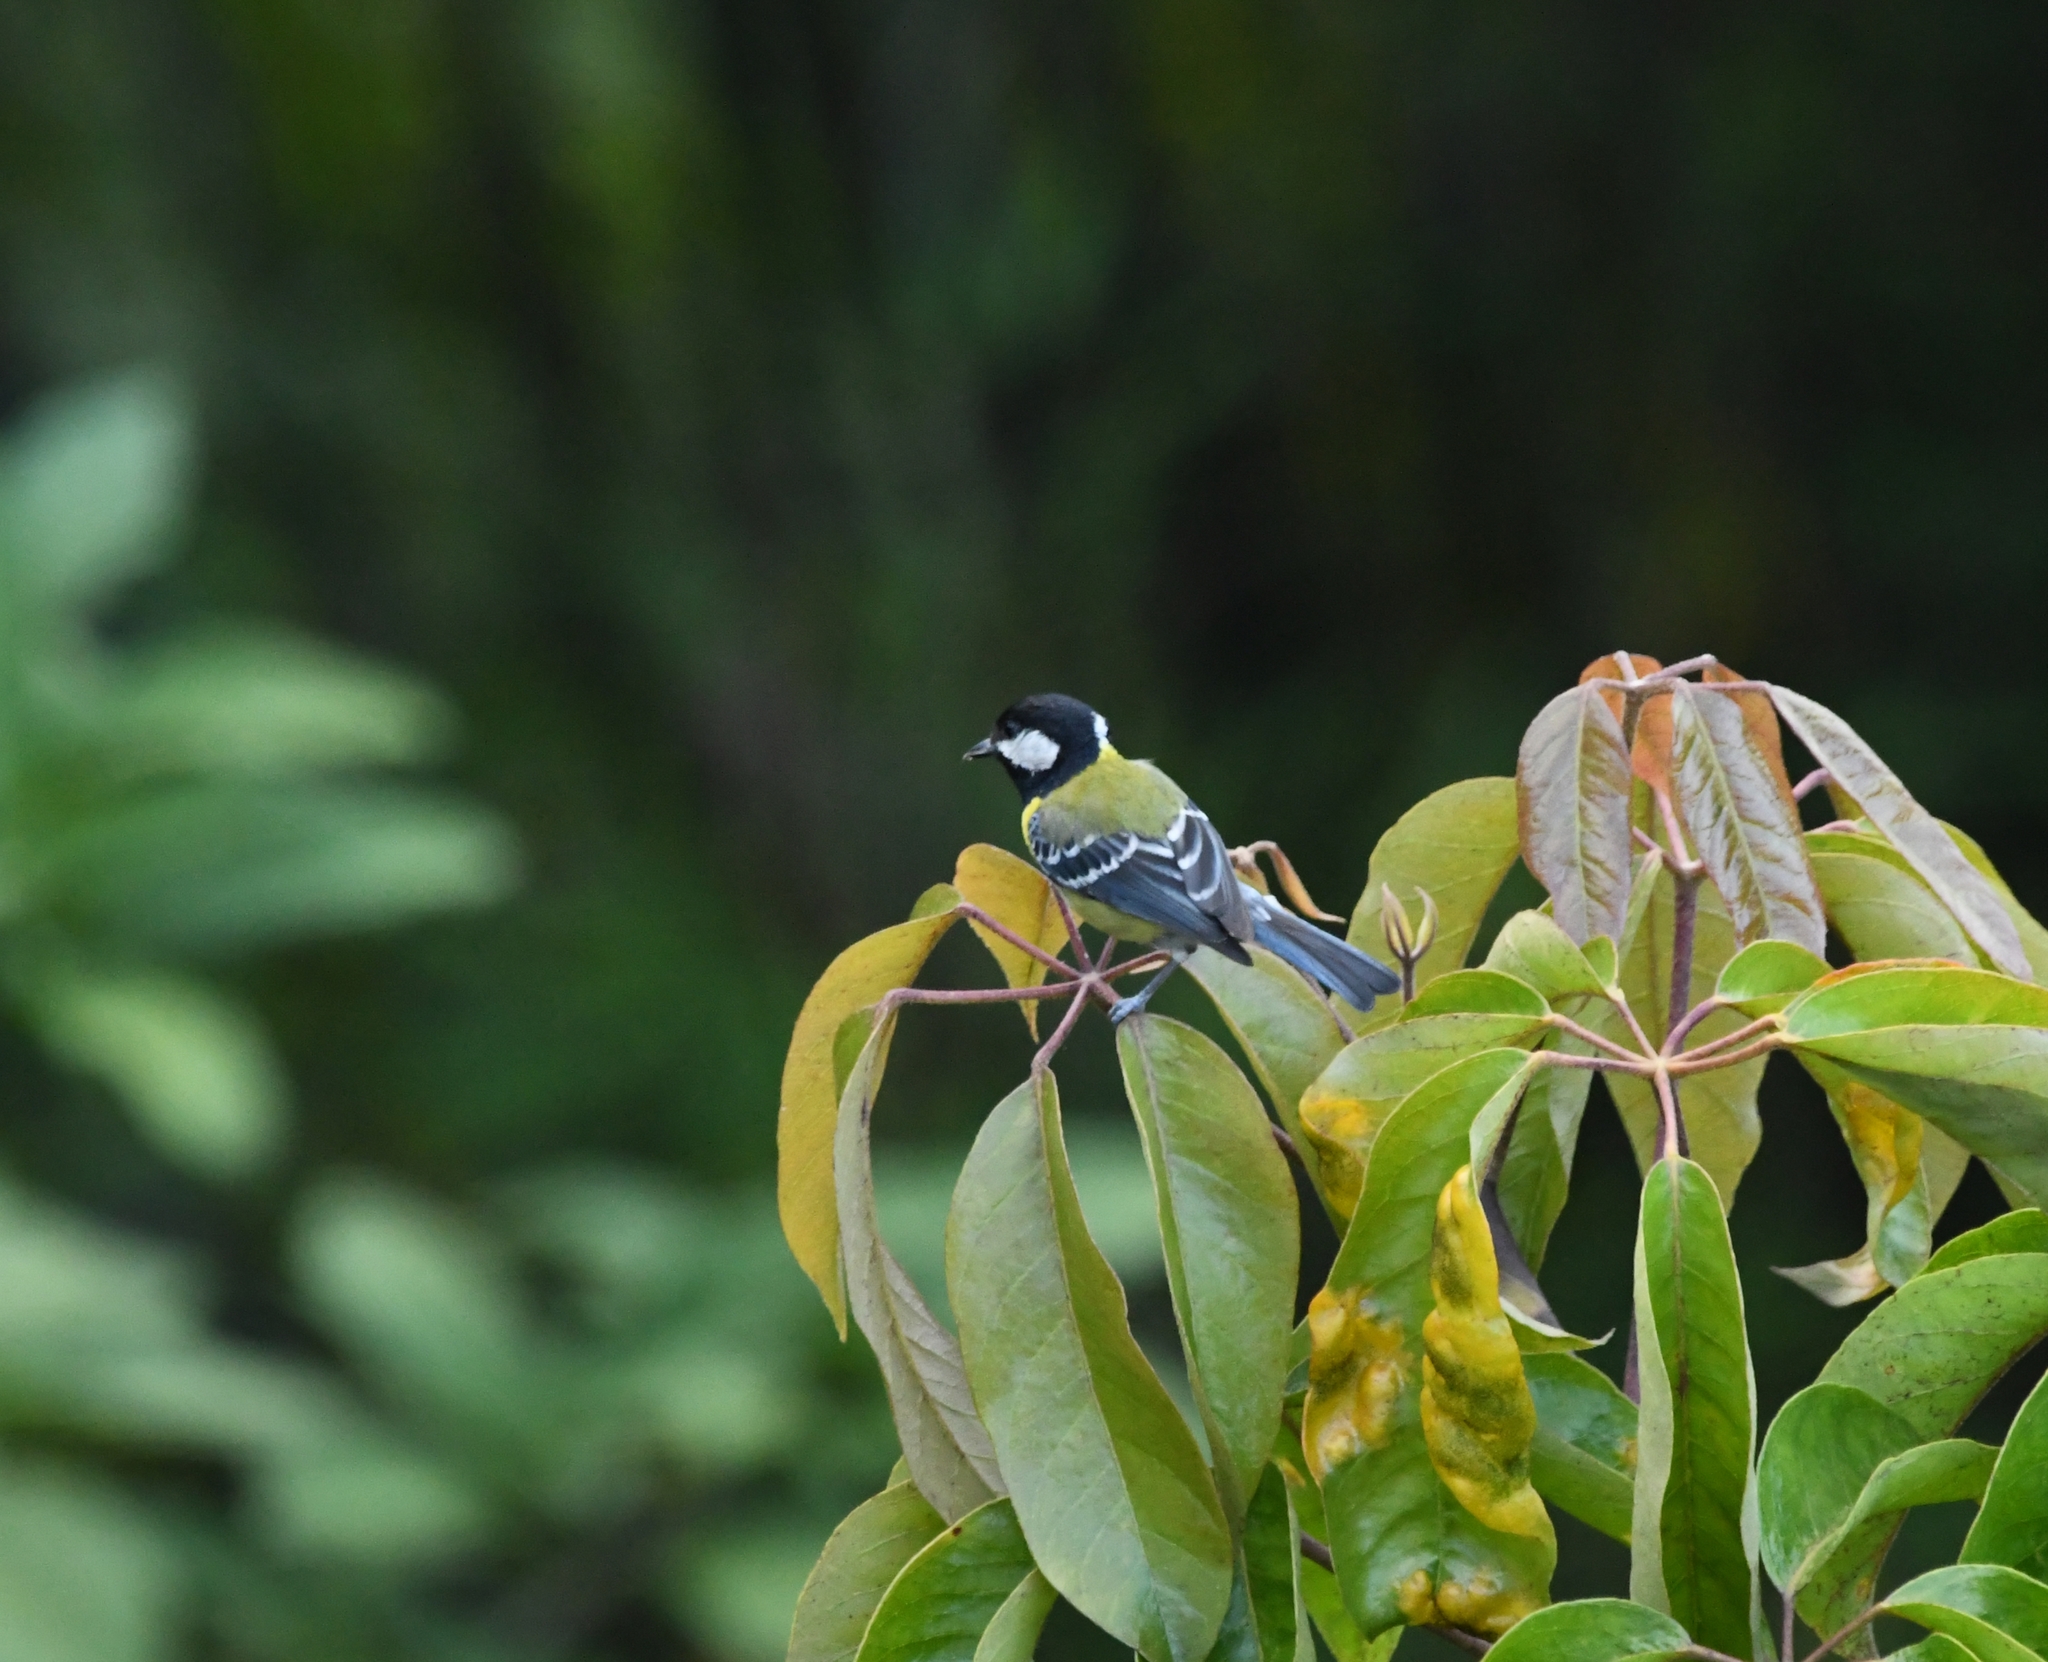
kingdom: Animalia
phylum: Chordata
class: Aves
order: Passeriformes
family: Paridae
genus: Parus
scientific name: Parus monticolus
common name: Green-backed tit
